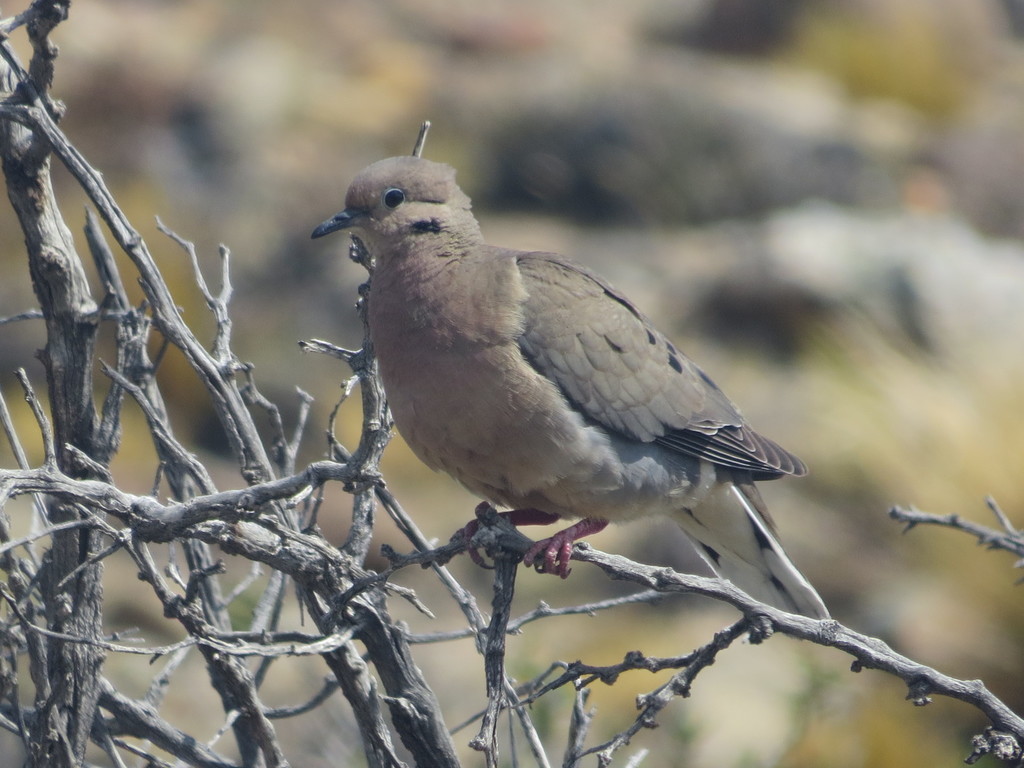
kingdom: Animalia
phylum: Chordata
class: Aves
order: Columbiformes
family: Columbidae
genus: Zenaida
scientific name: Zenaida auriculata
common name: Eared dove
